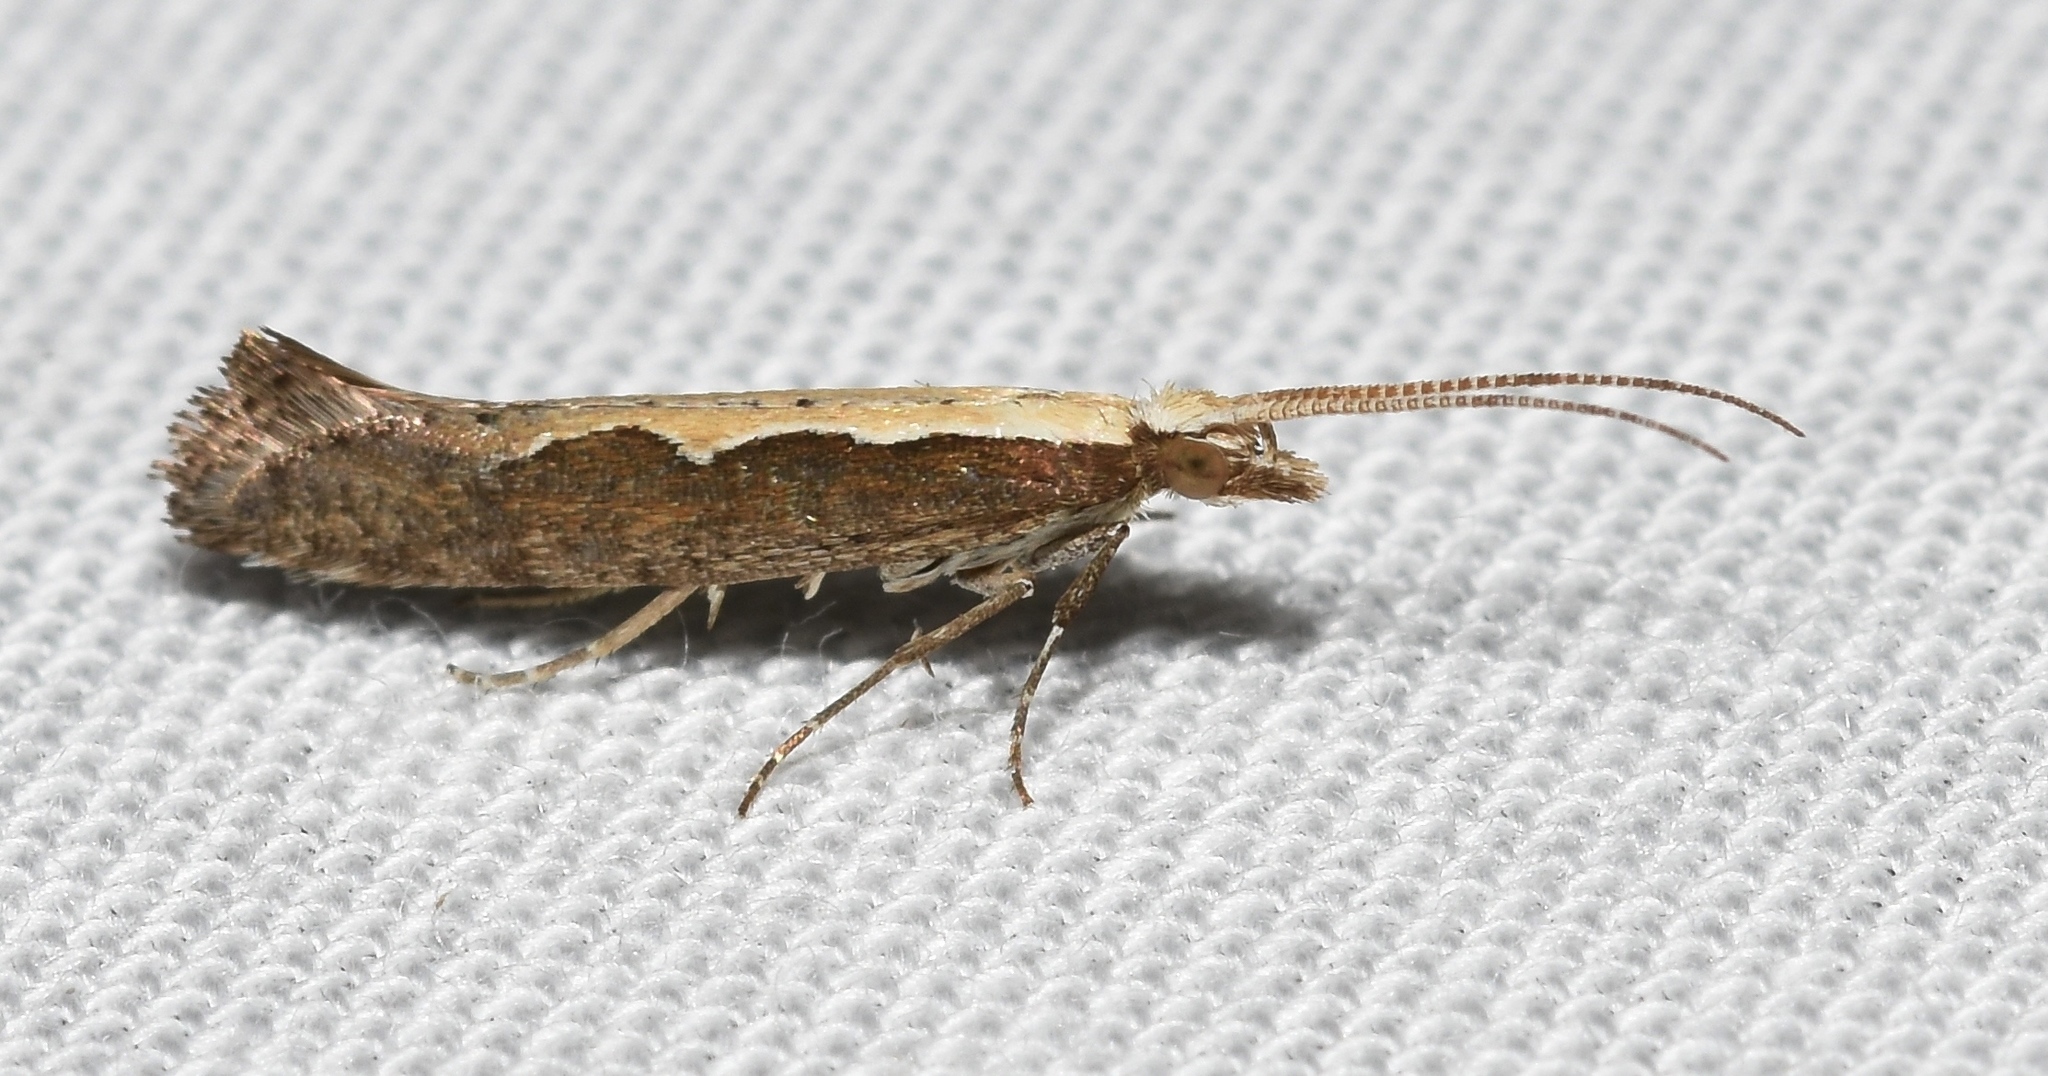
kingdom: Animalia
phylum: Arthropoda
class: Insecta
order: Lepidoptera
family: Plutellidae
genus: Plutella
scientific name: Plutella xylostella
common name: Diamond-back moth
